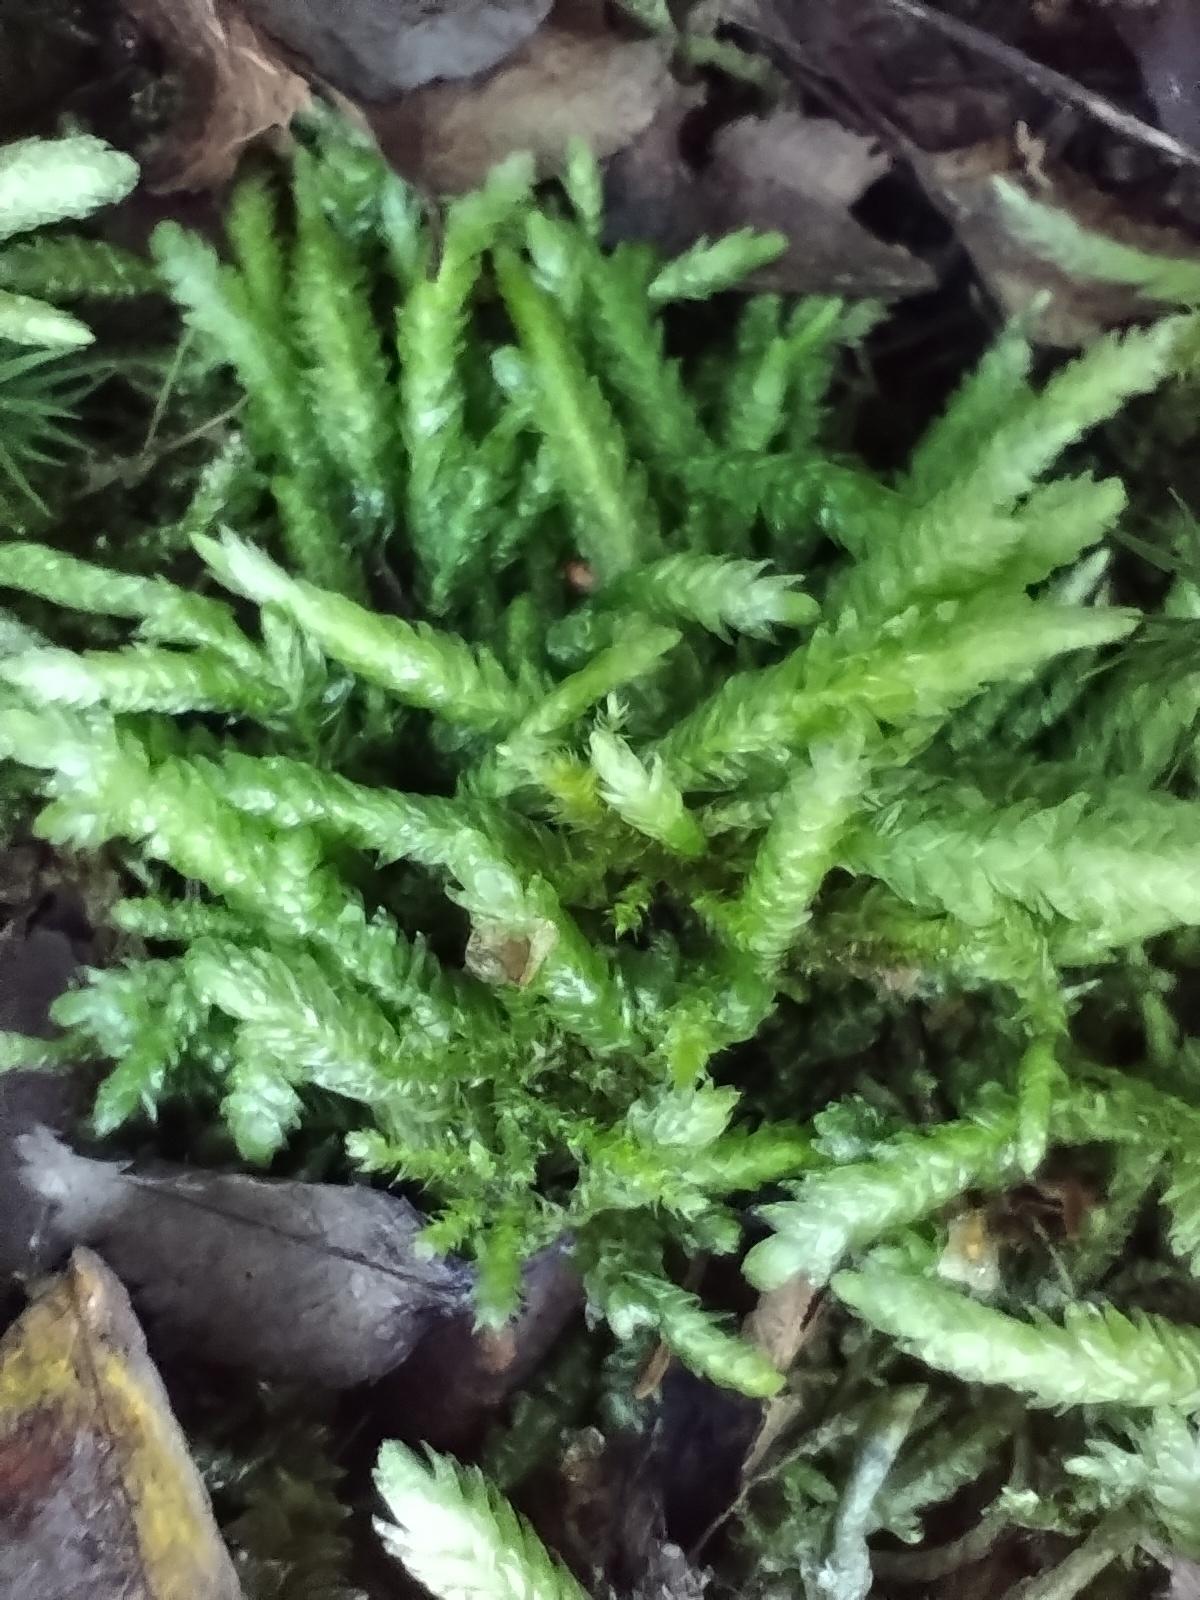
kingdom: Plantae
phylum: Bryophyta
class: Bryopsida
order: Hypnales
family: Plagiotheciaceae
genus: Plagiothecium
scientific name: Plagiothecium undulatum
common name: Waved silk-moss
